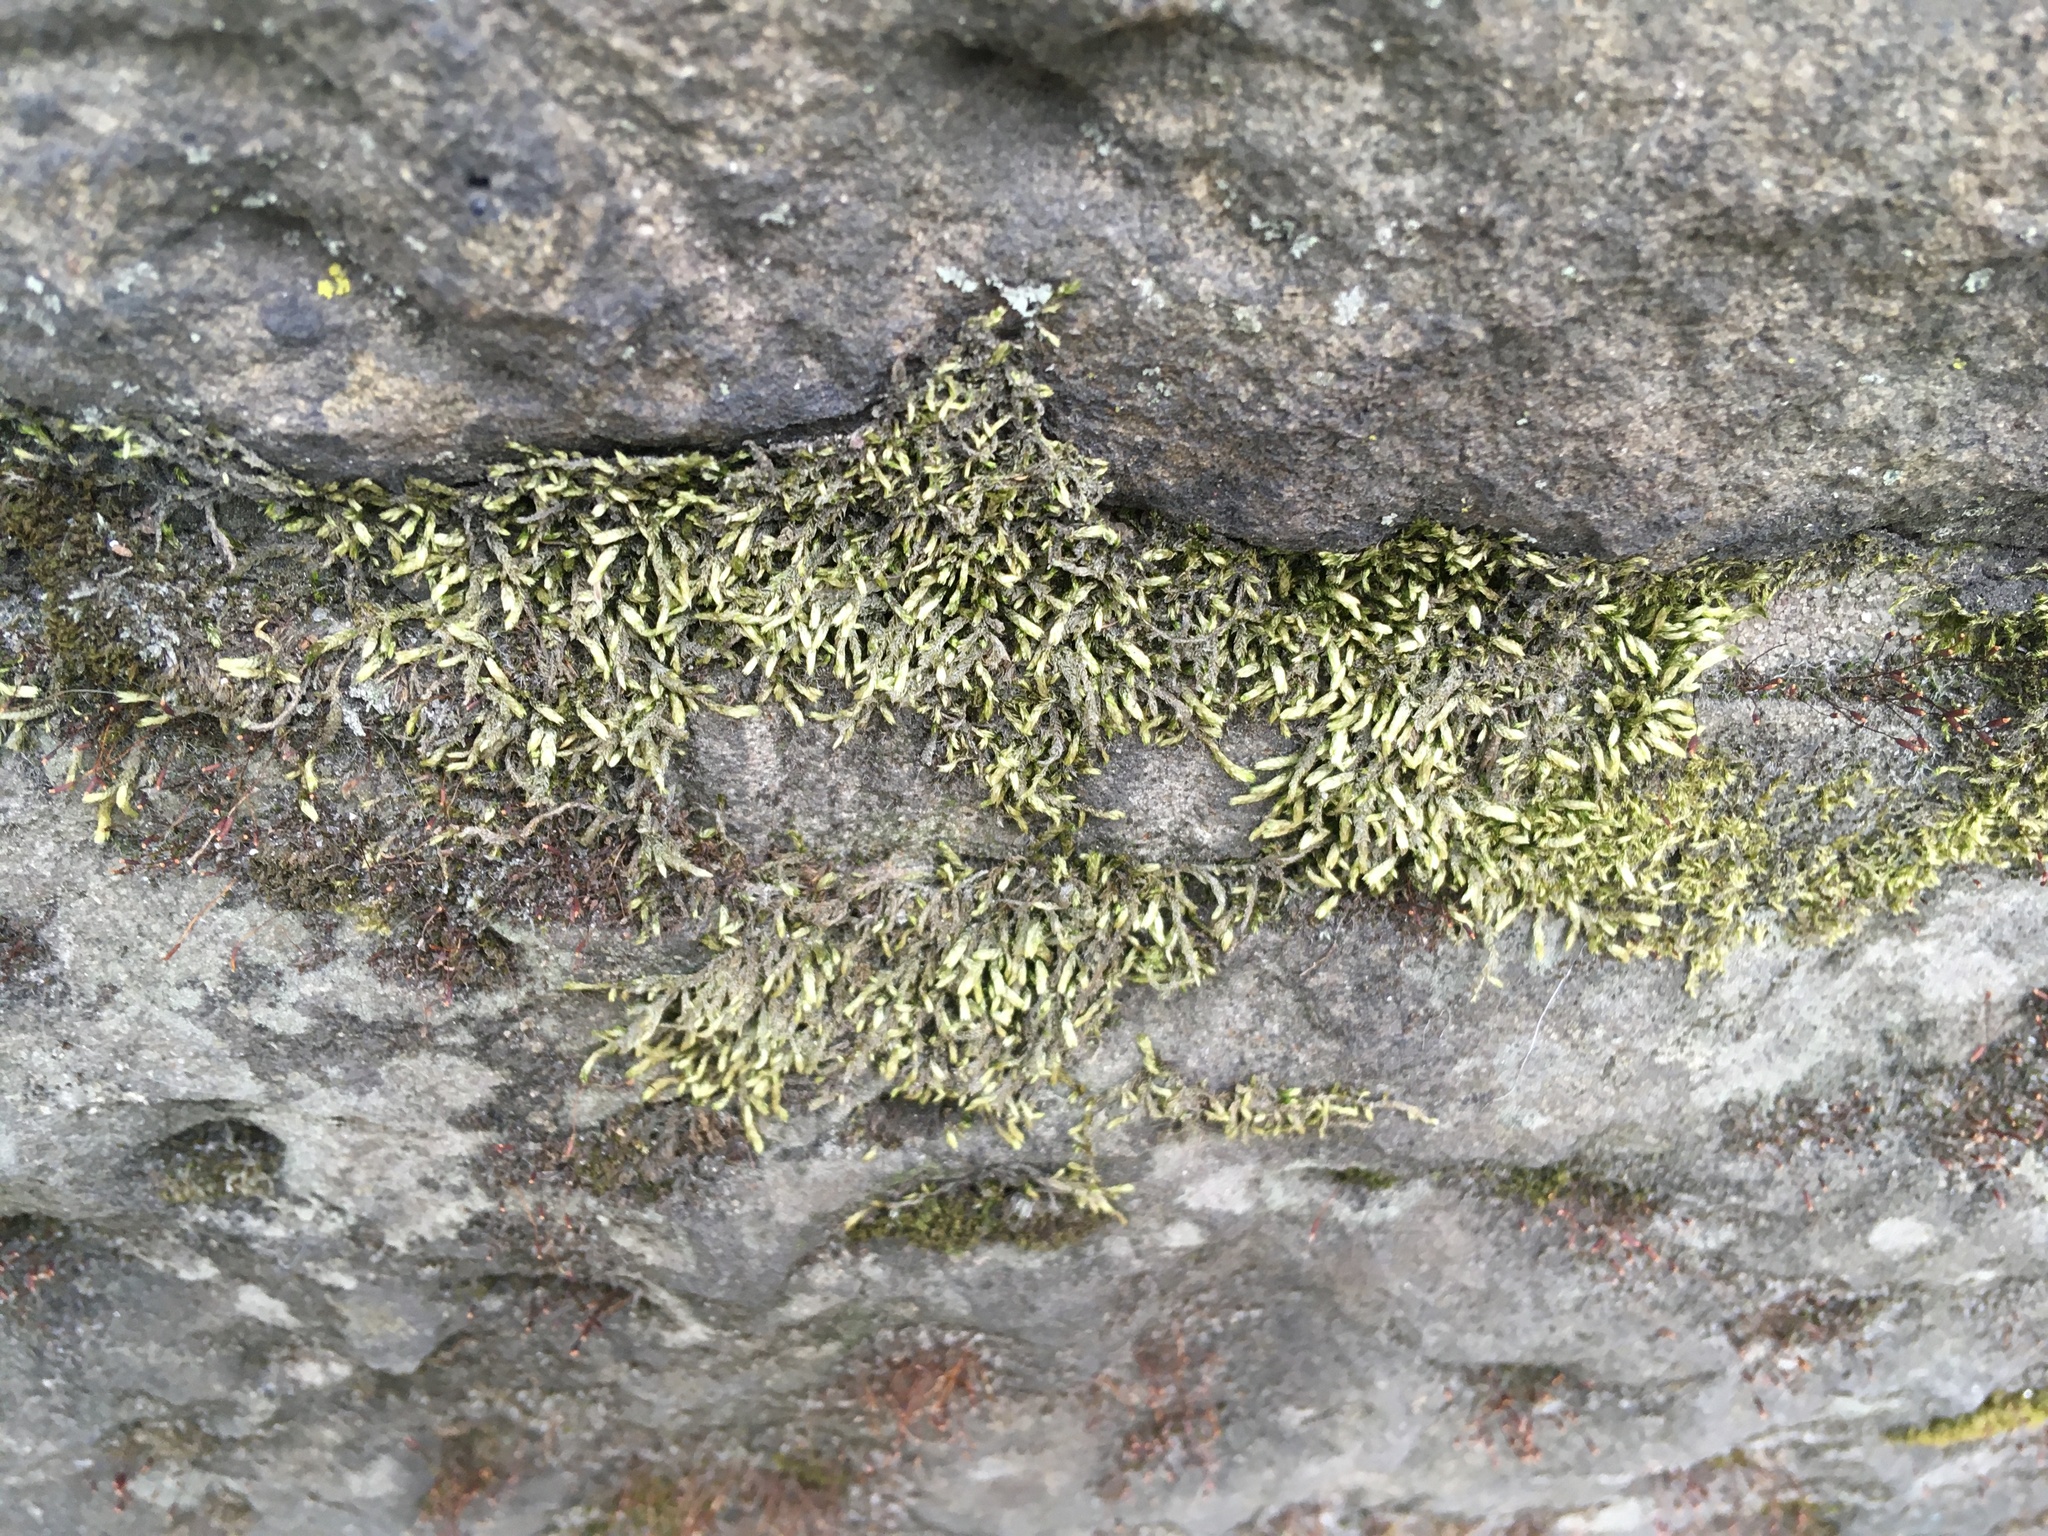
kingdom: Plantae
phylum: Bryophyta
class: Bryopsida
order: Hypnales
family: Entodontaceae
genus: Entodon
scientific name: Entodon seductrix
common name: Round-stemmed entodon moss
